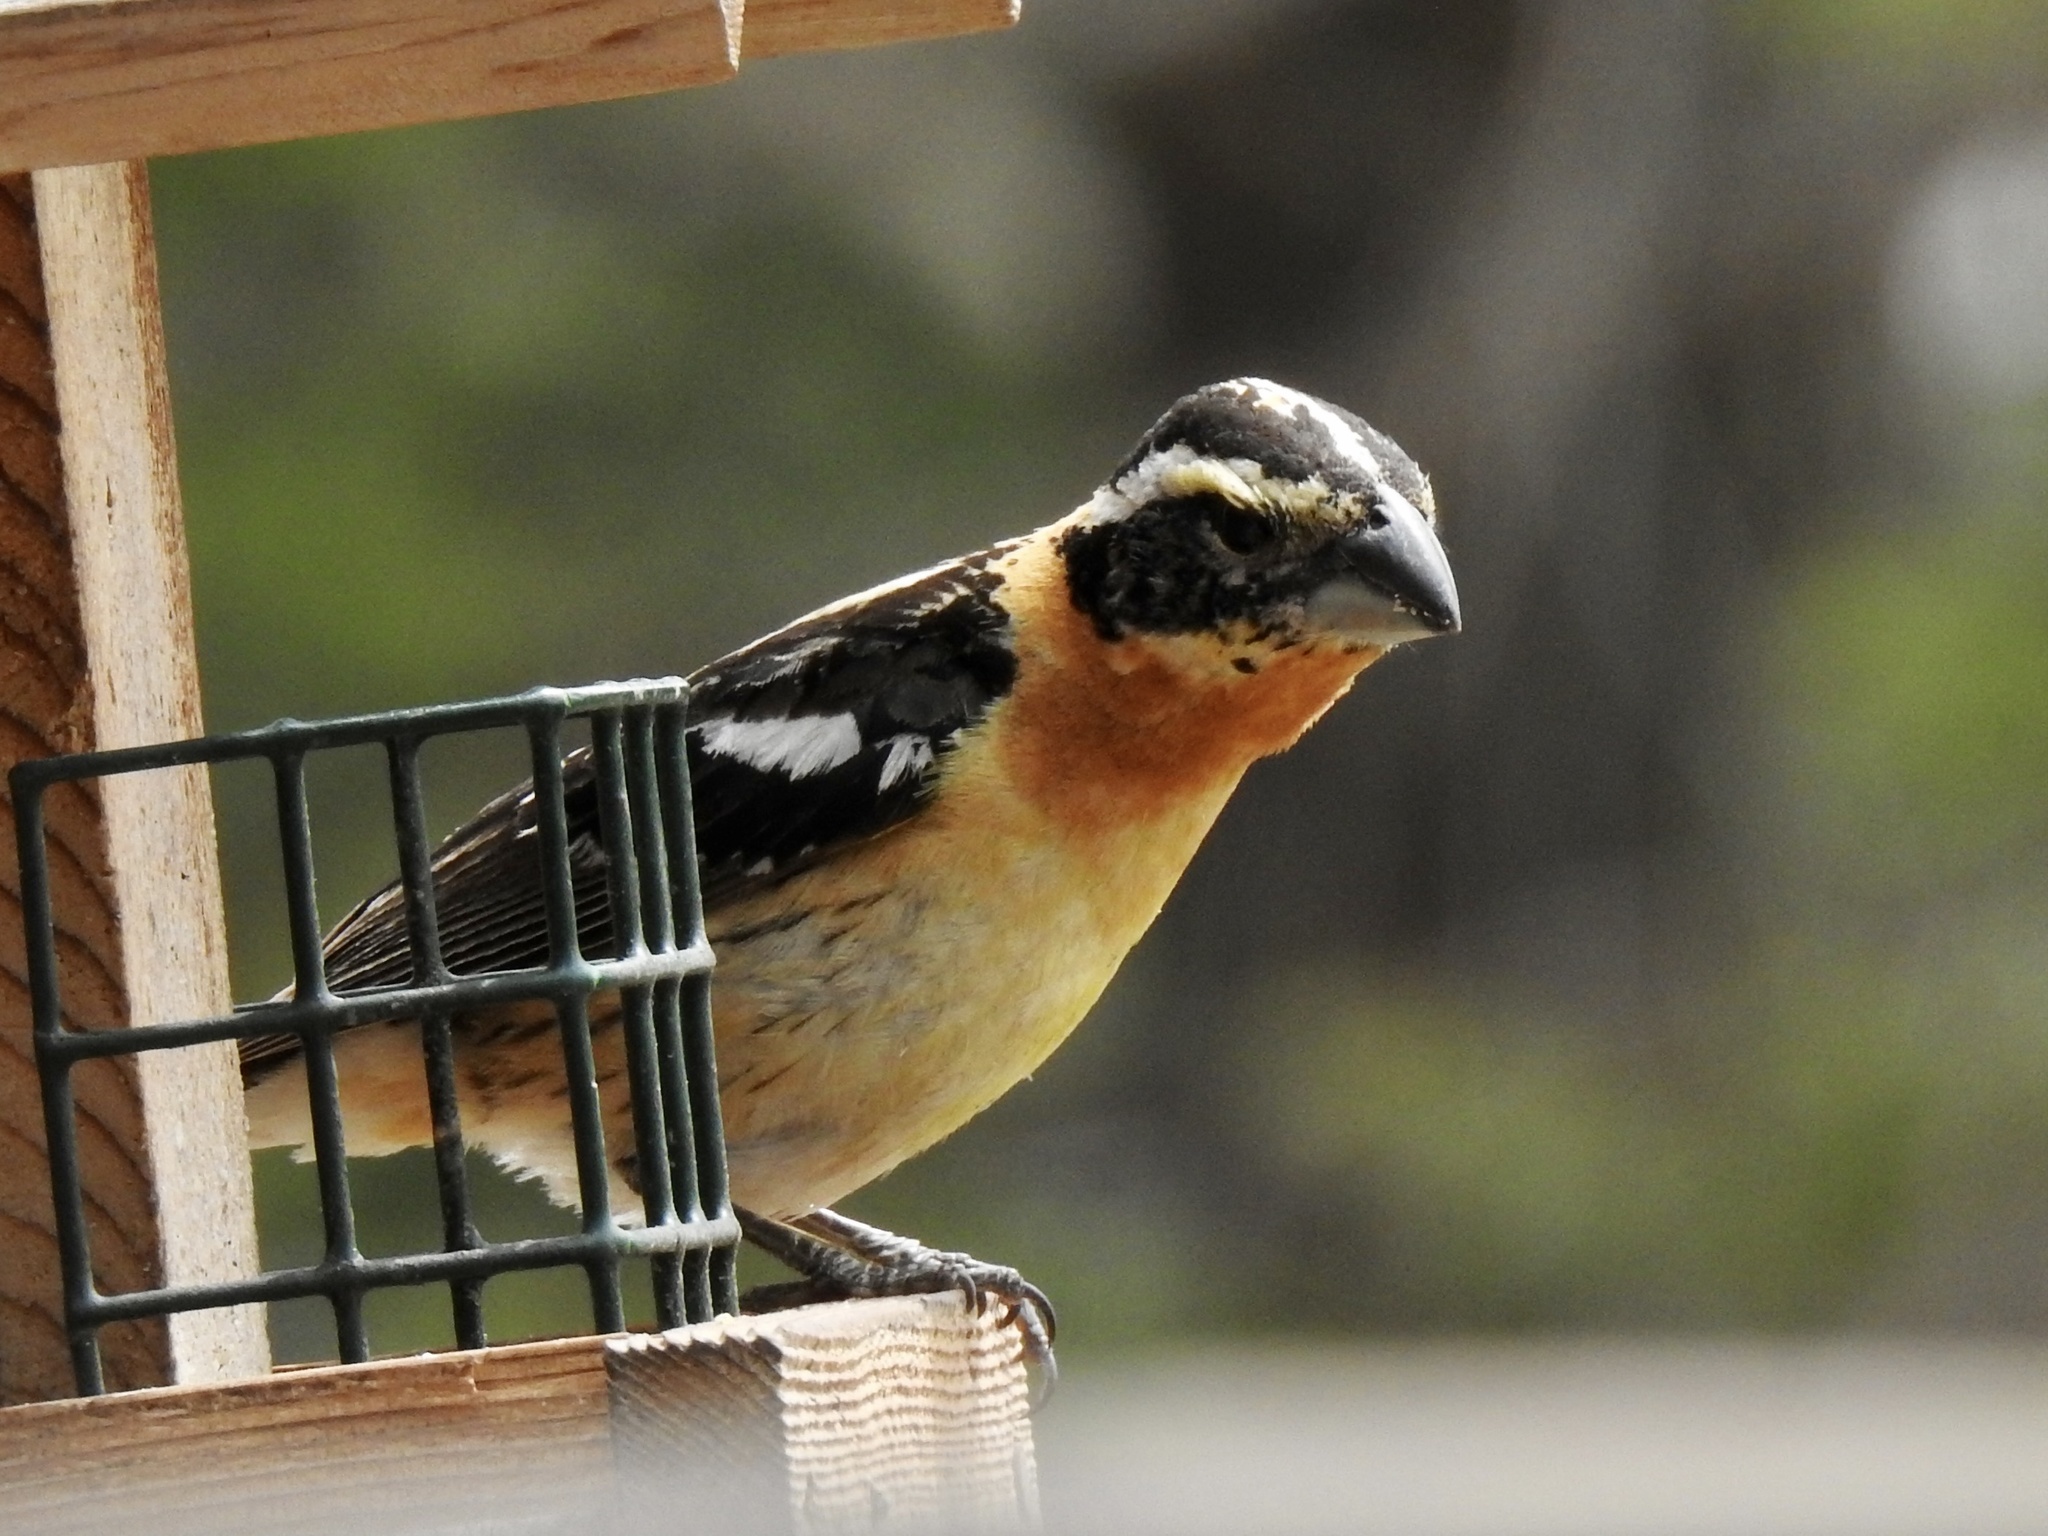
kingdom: Animalia
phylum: Chordata
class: Aves
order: Passeriformes
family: Cardinalidae
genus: Pheucticus
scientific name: Pheucticus melanocephalus
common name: Black-headed grosbeak
